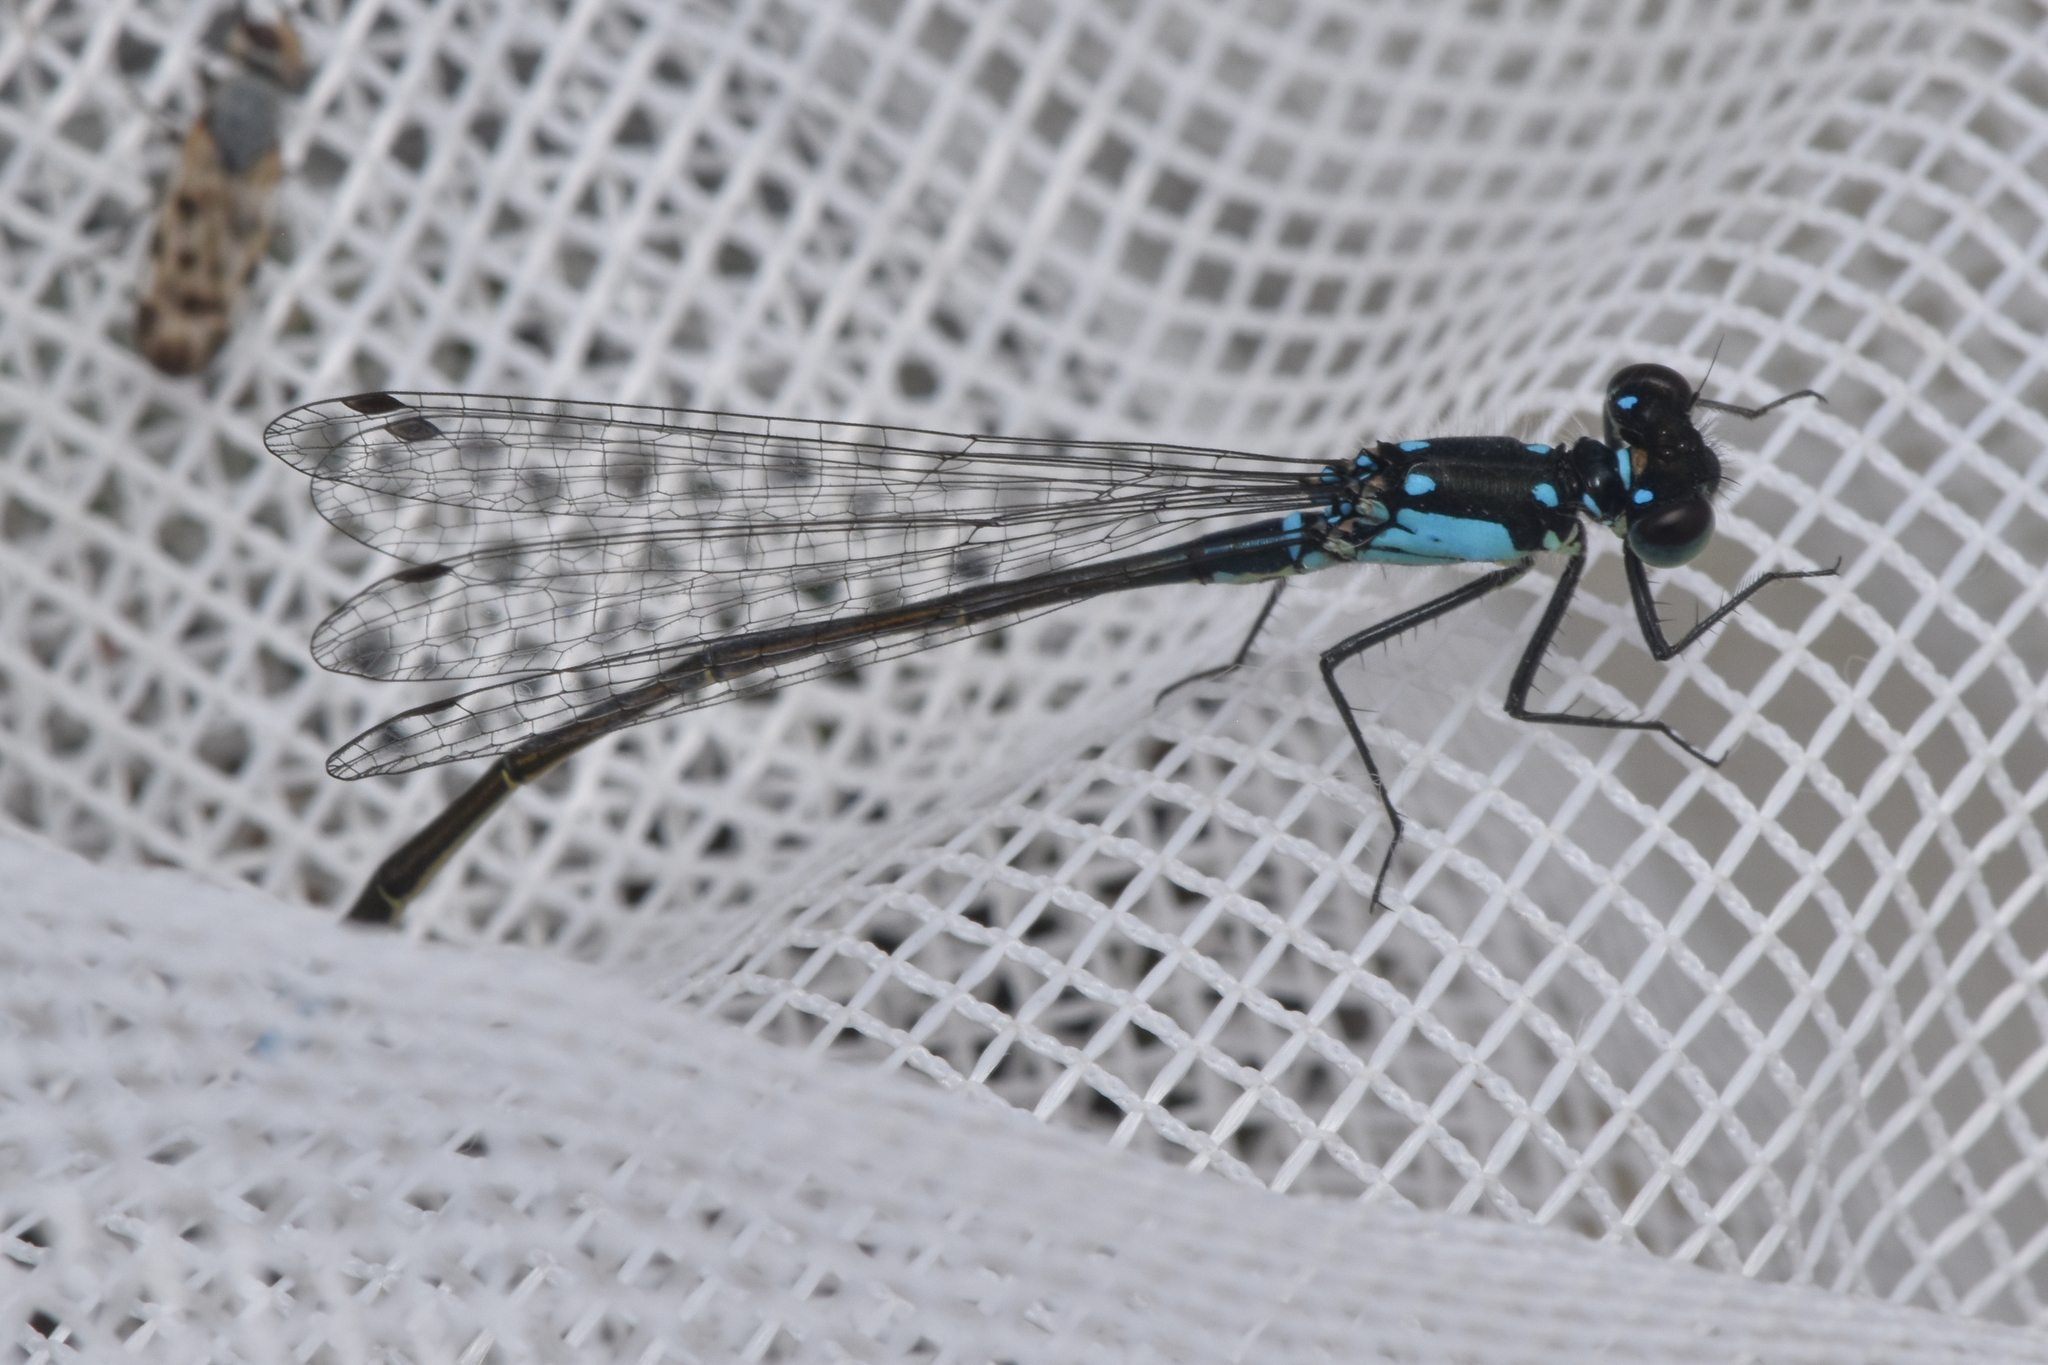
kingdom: Animalia
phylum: Arthropoda
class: Insecta
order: Odonata
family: Coenagrionidae
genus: Ischnura
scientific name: Ischnura cervula
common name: Pacific forktail
